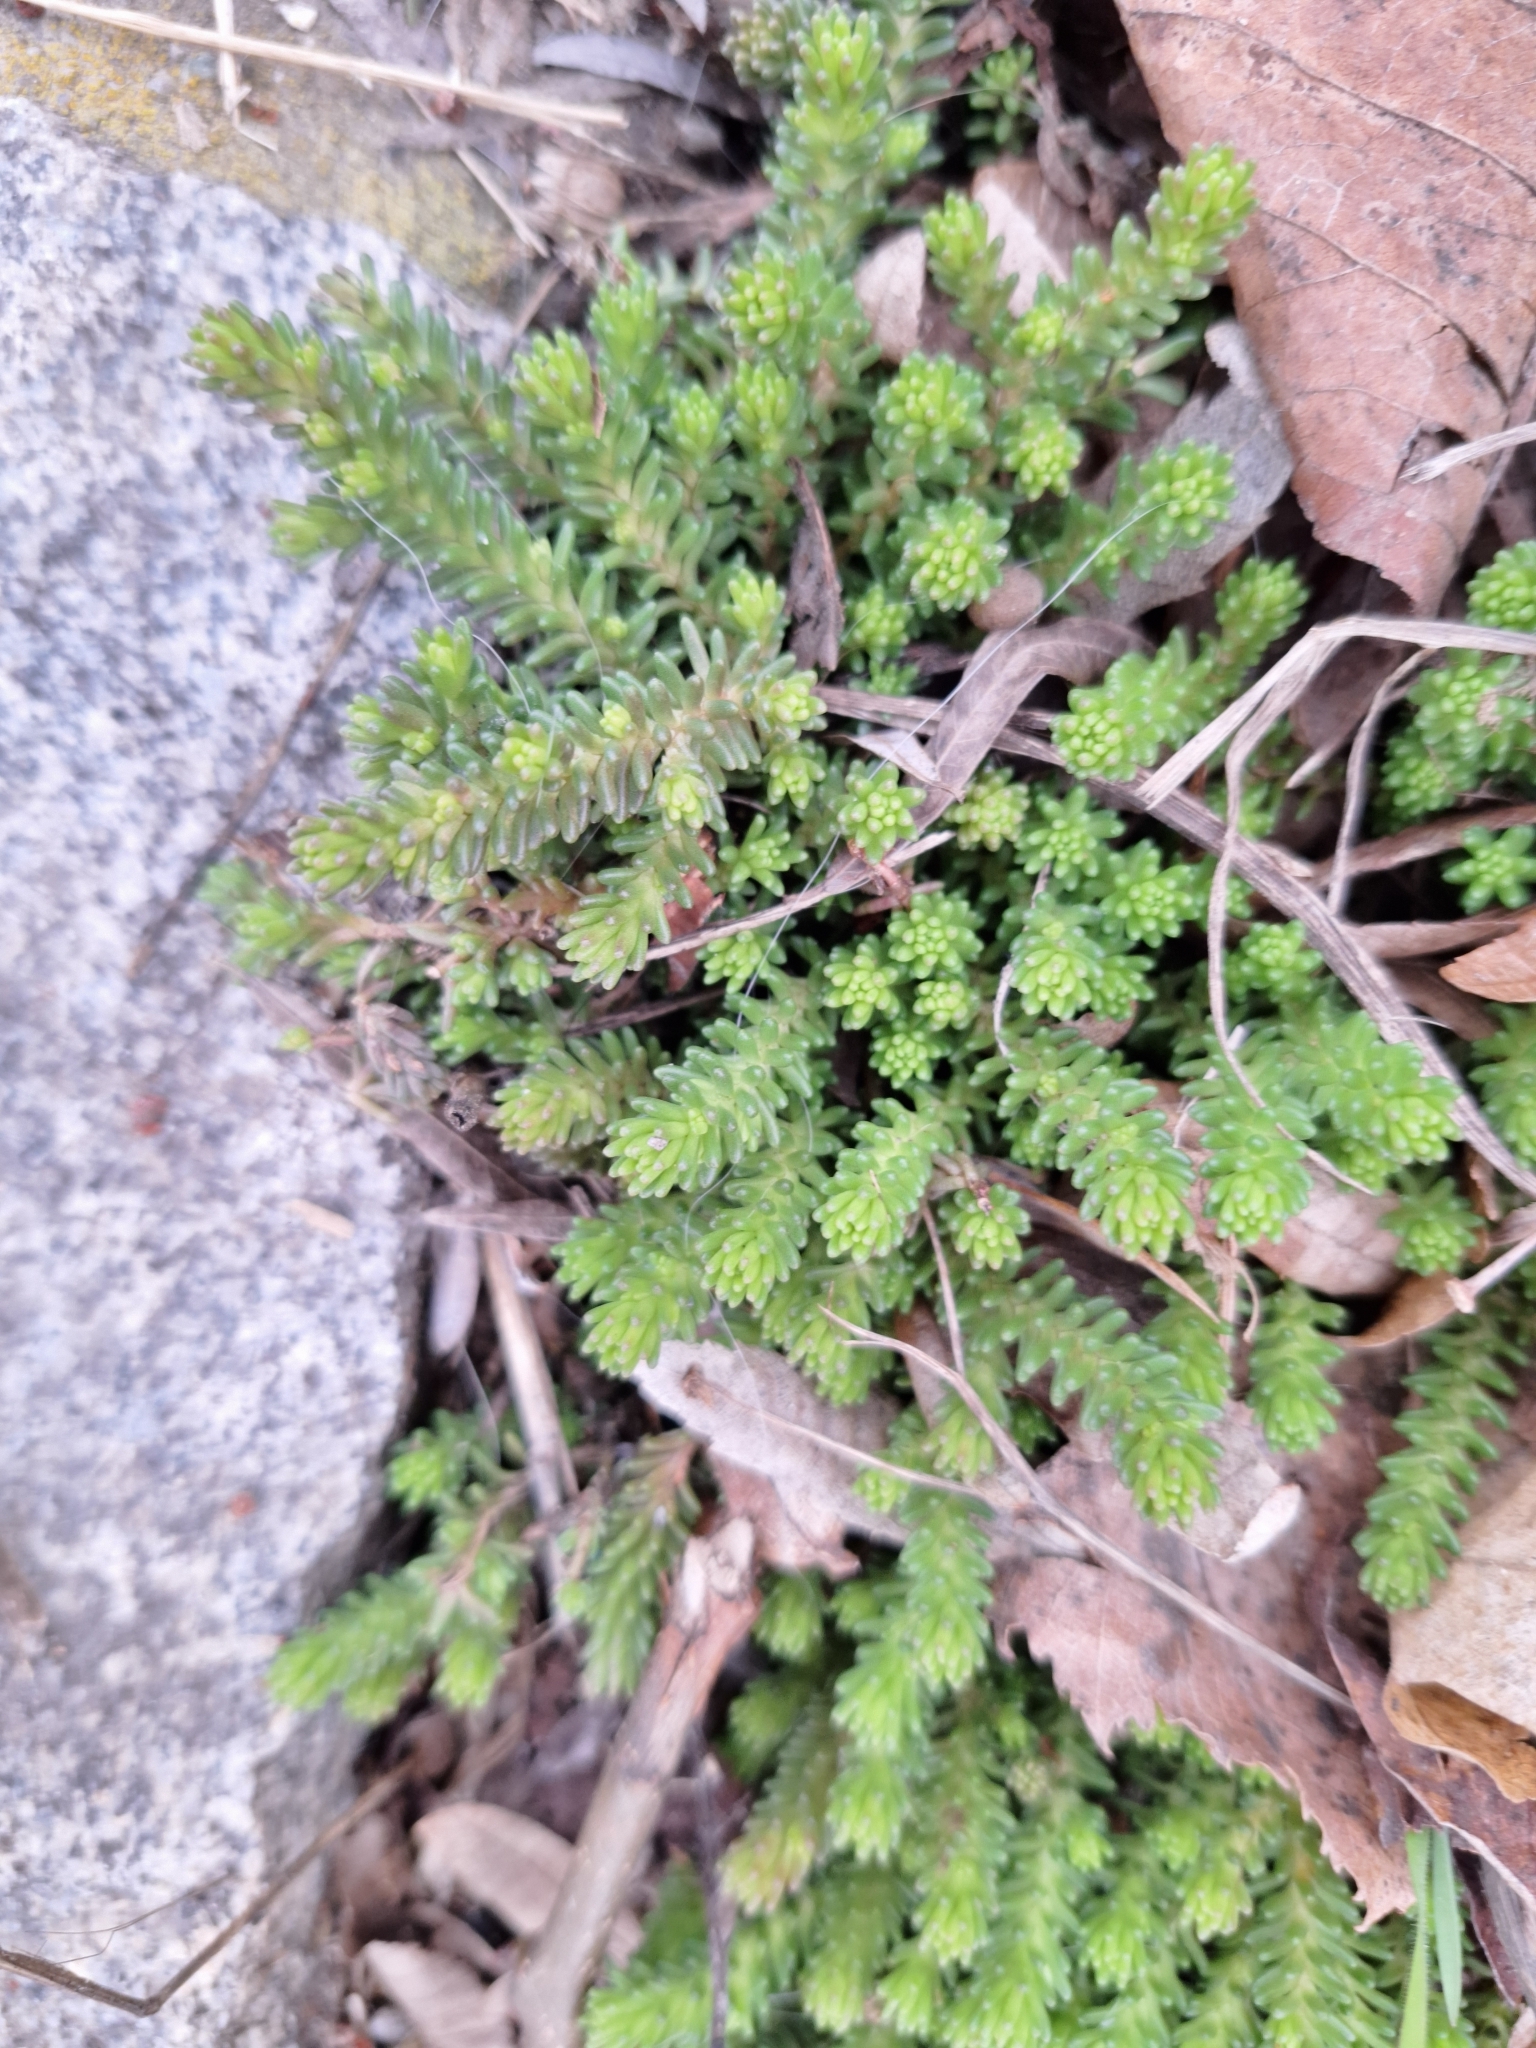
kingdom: Plantae
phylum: Tracheophyta
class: Magnoliopsida
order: Saxifragales
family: Crassulaceae
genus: Sedum
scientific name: Sedum sexangulare
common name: Tasteless stonecrop
